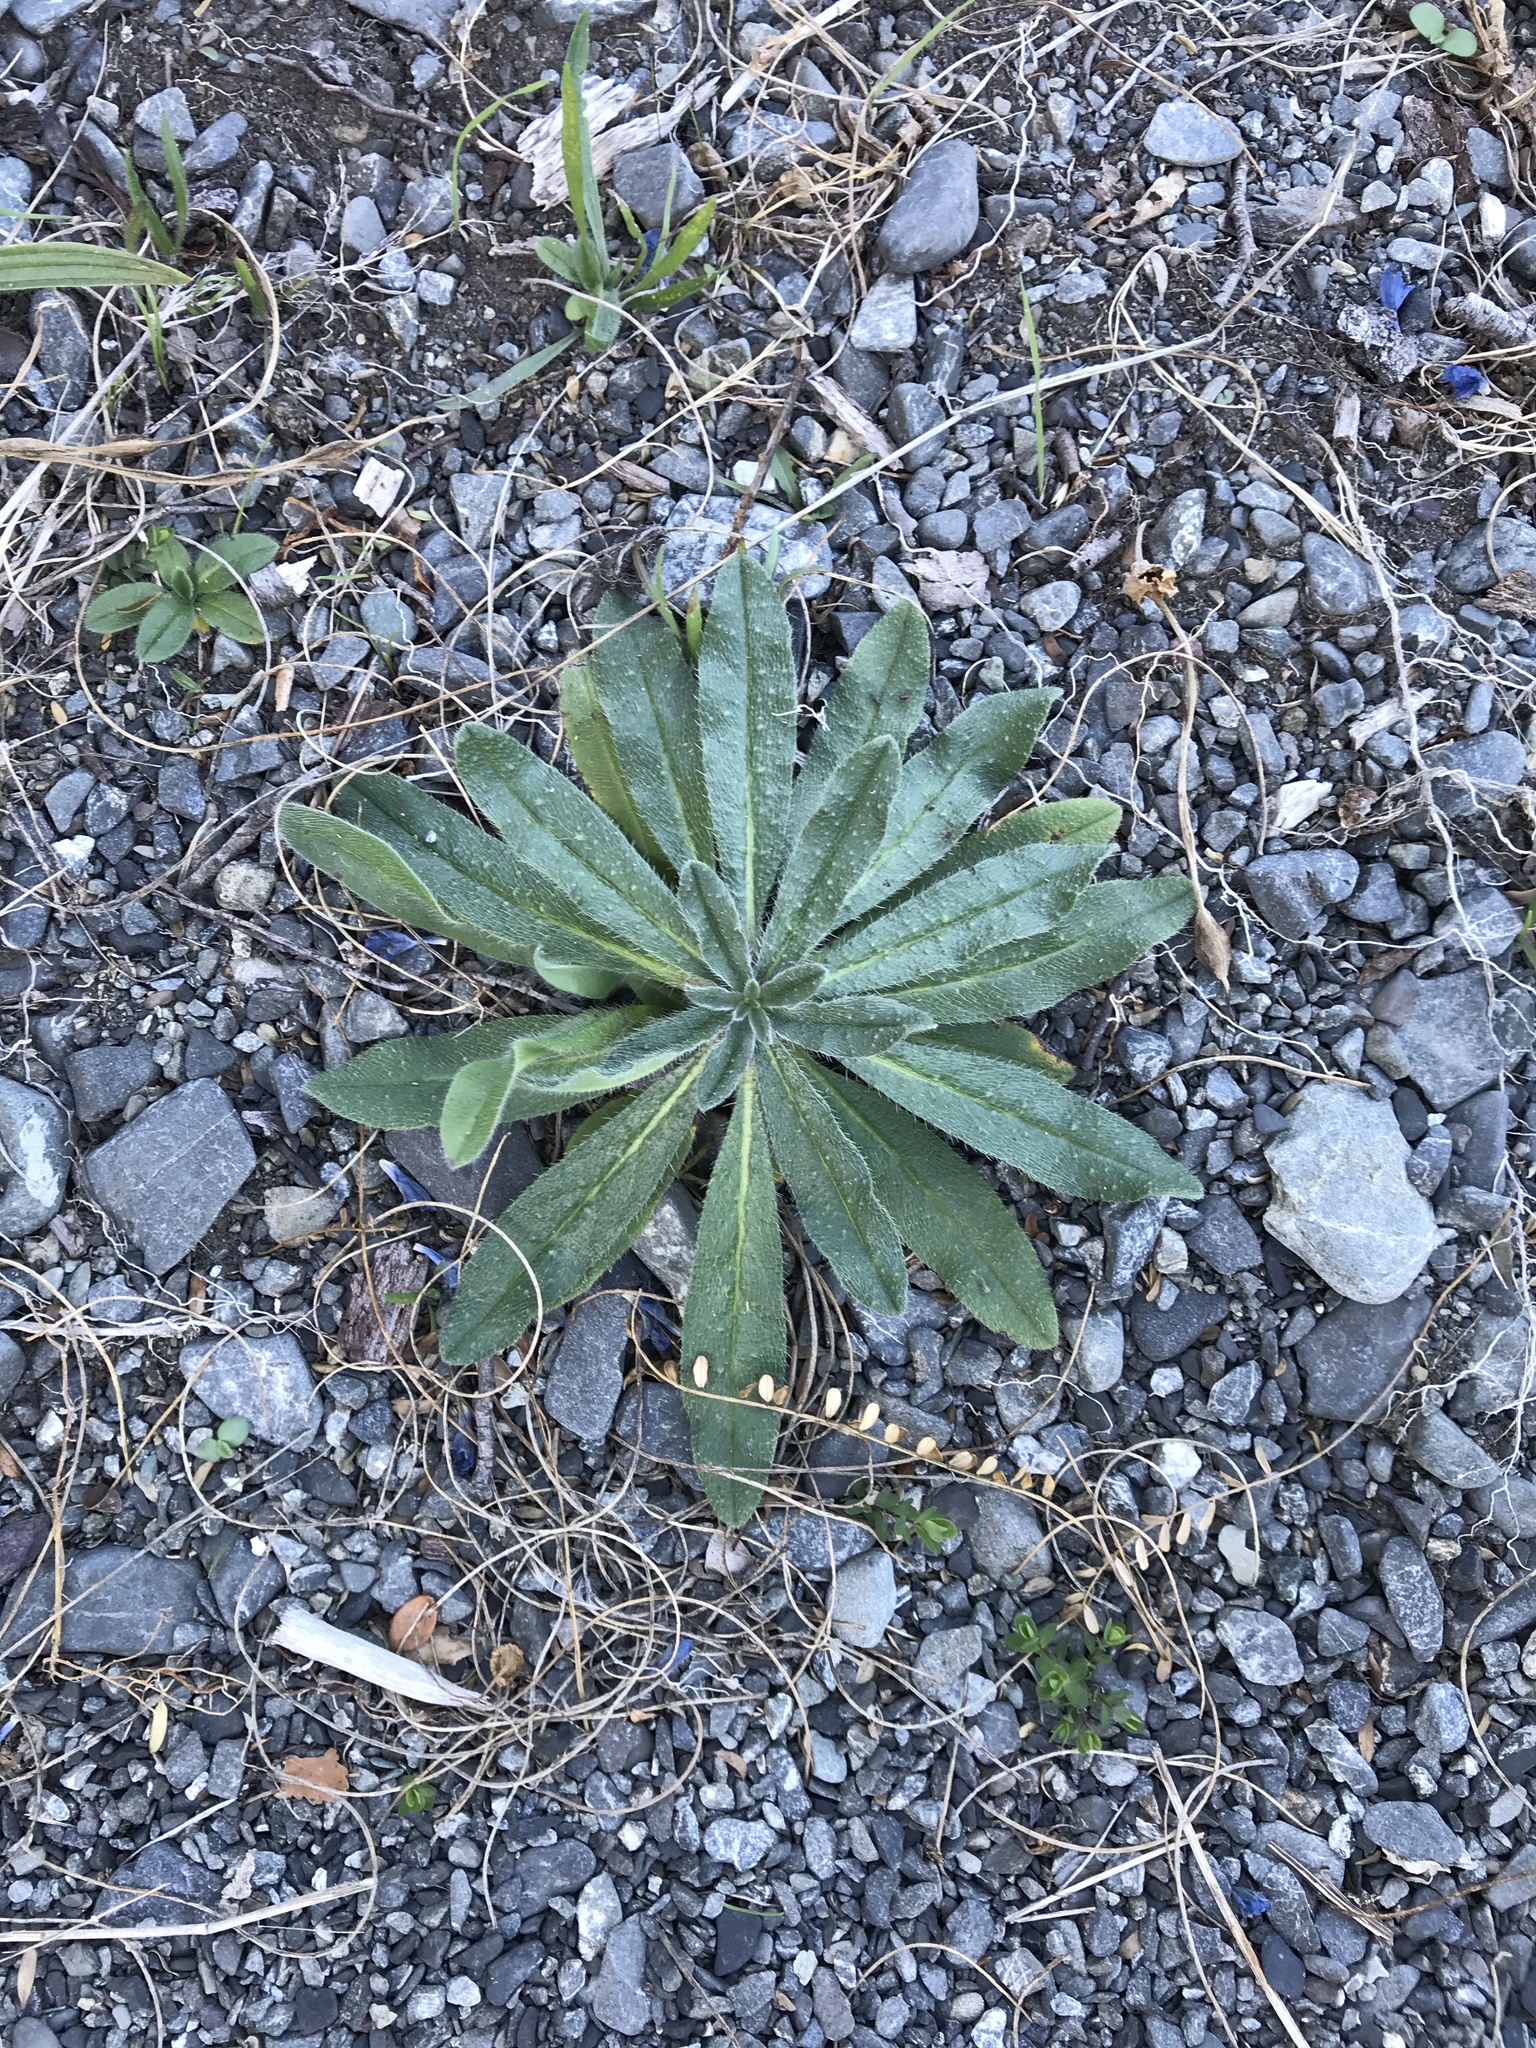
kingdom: Plantae
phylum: Tracheophyta
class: Magnoliopsida
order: Boraginales
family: Boraginaceae
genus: Echium
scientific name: Echium vulgare
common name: Common viper's bugloss
